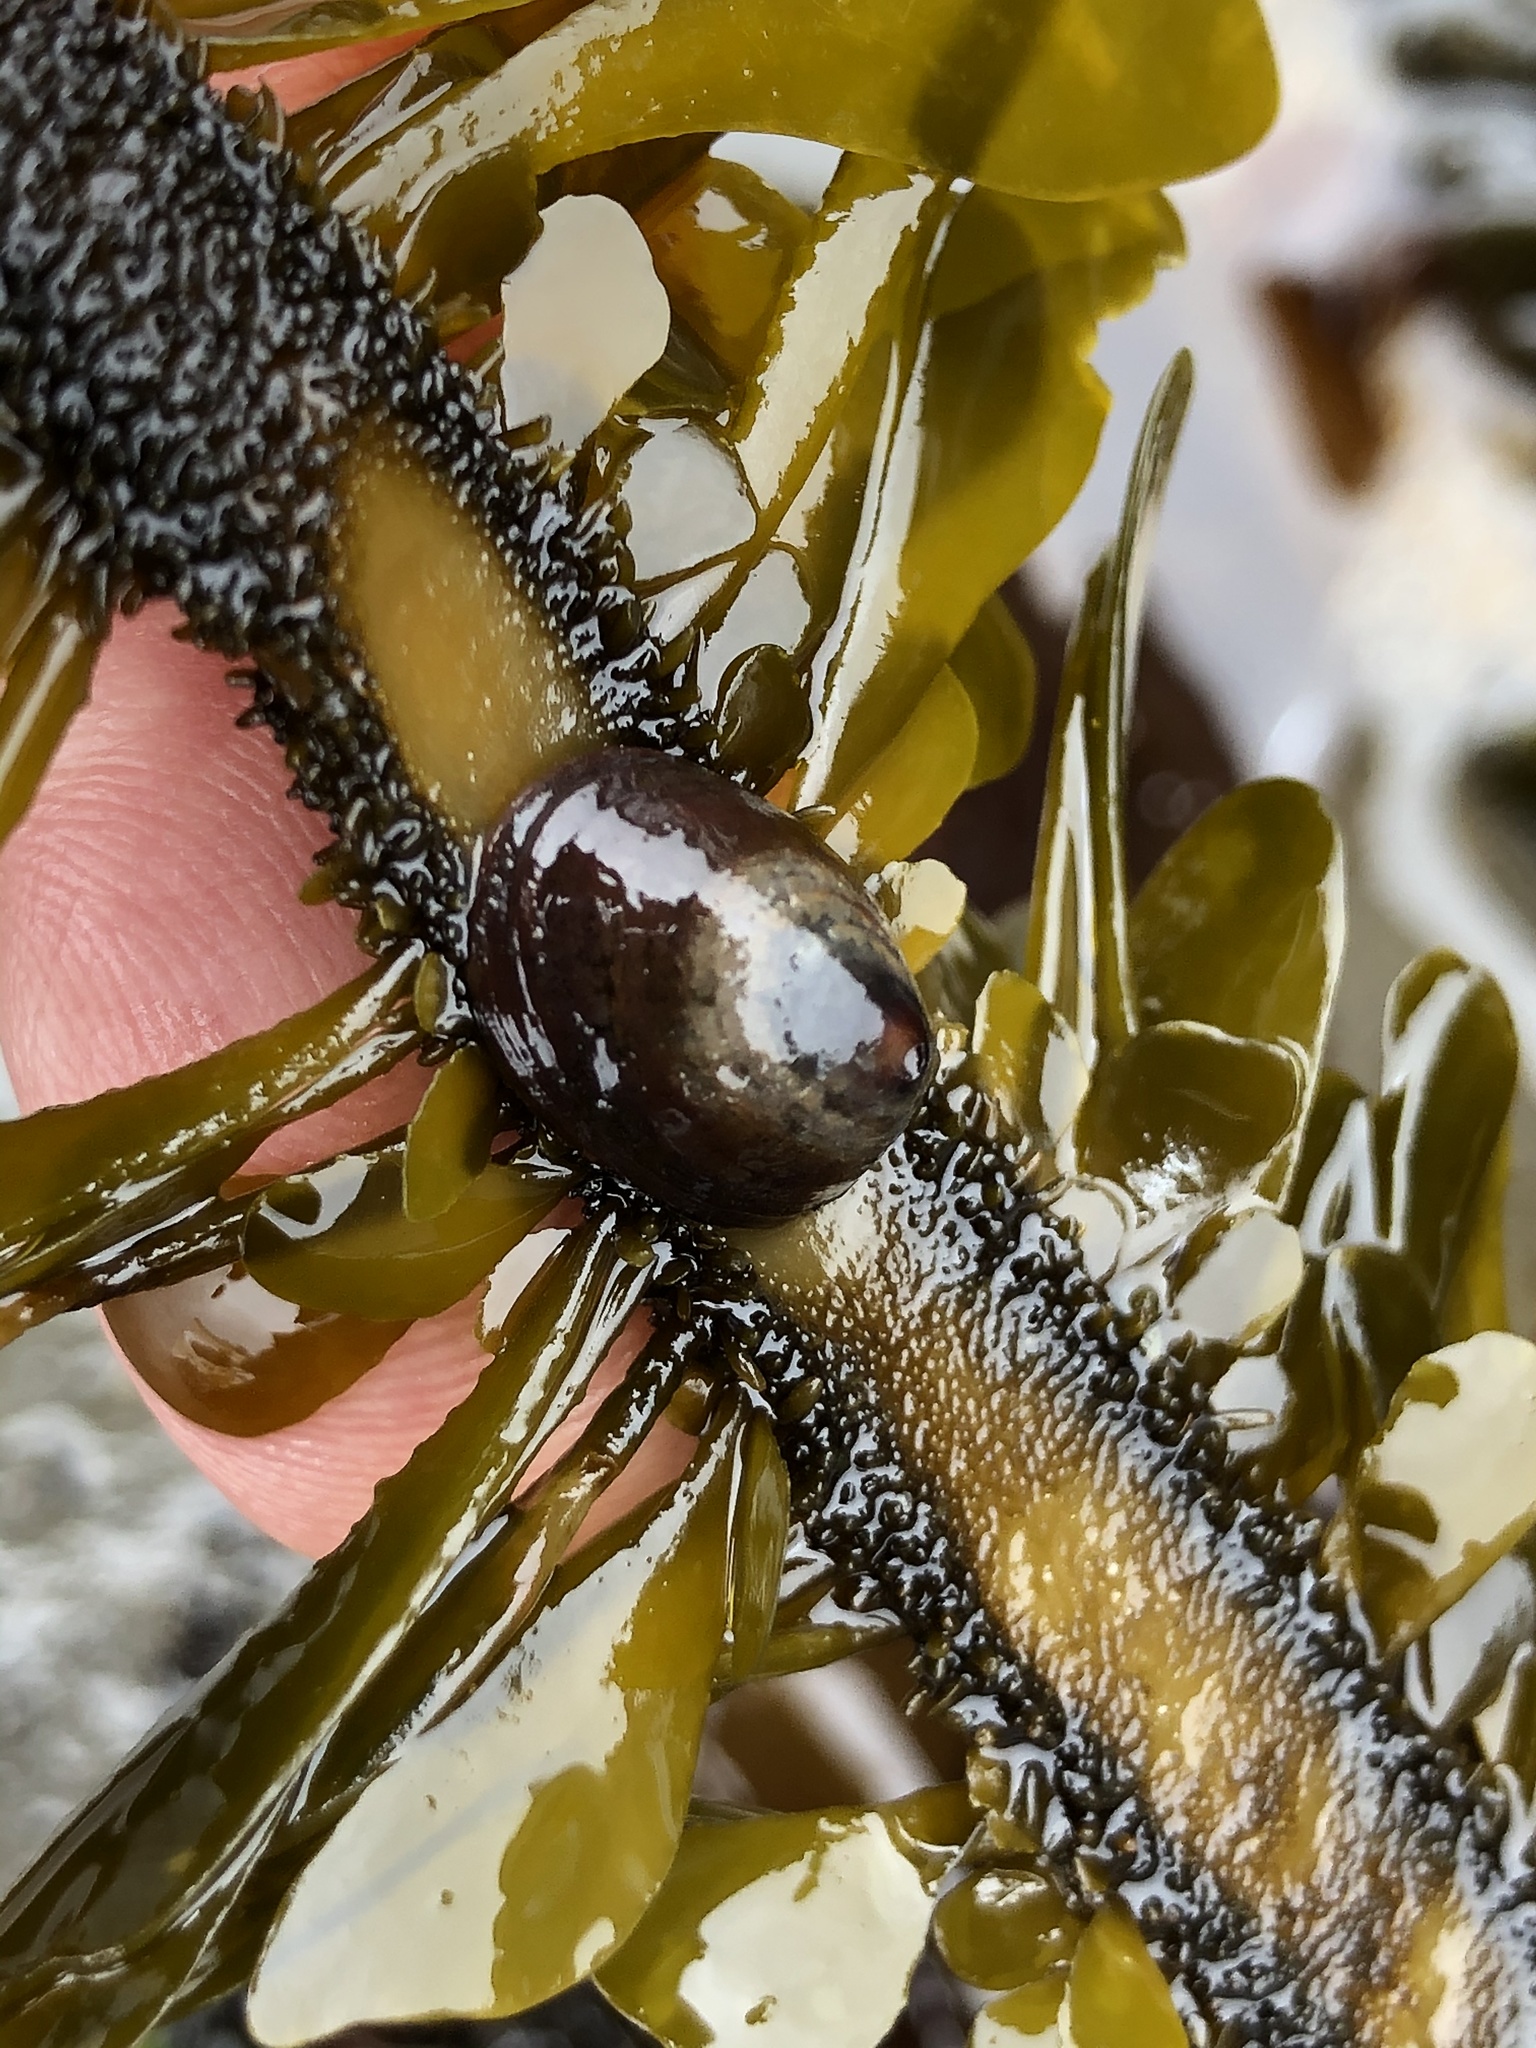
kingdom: Animalia
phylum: Mollusca
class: Gastropoda
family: Lottiidae
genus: Discurria
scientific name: Discurria insessa
